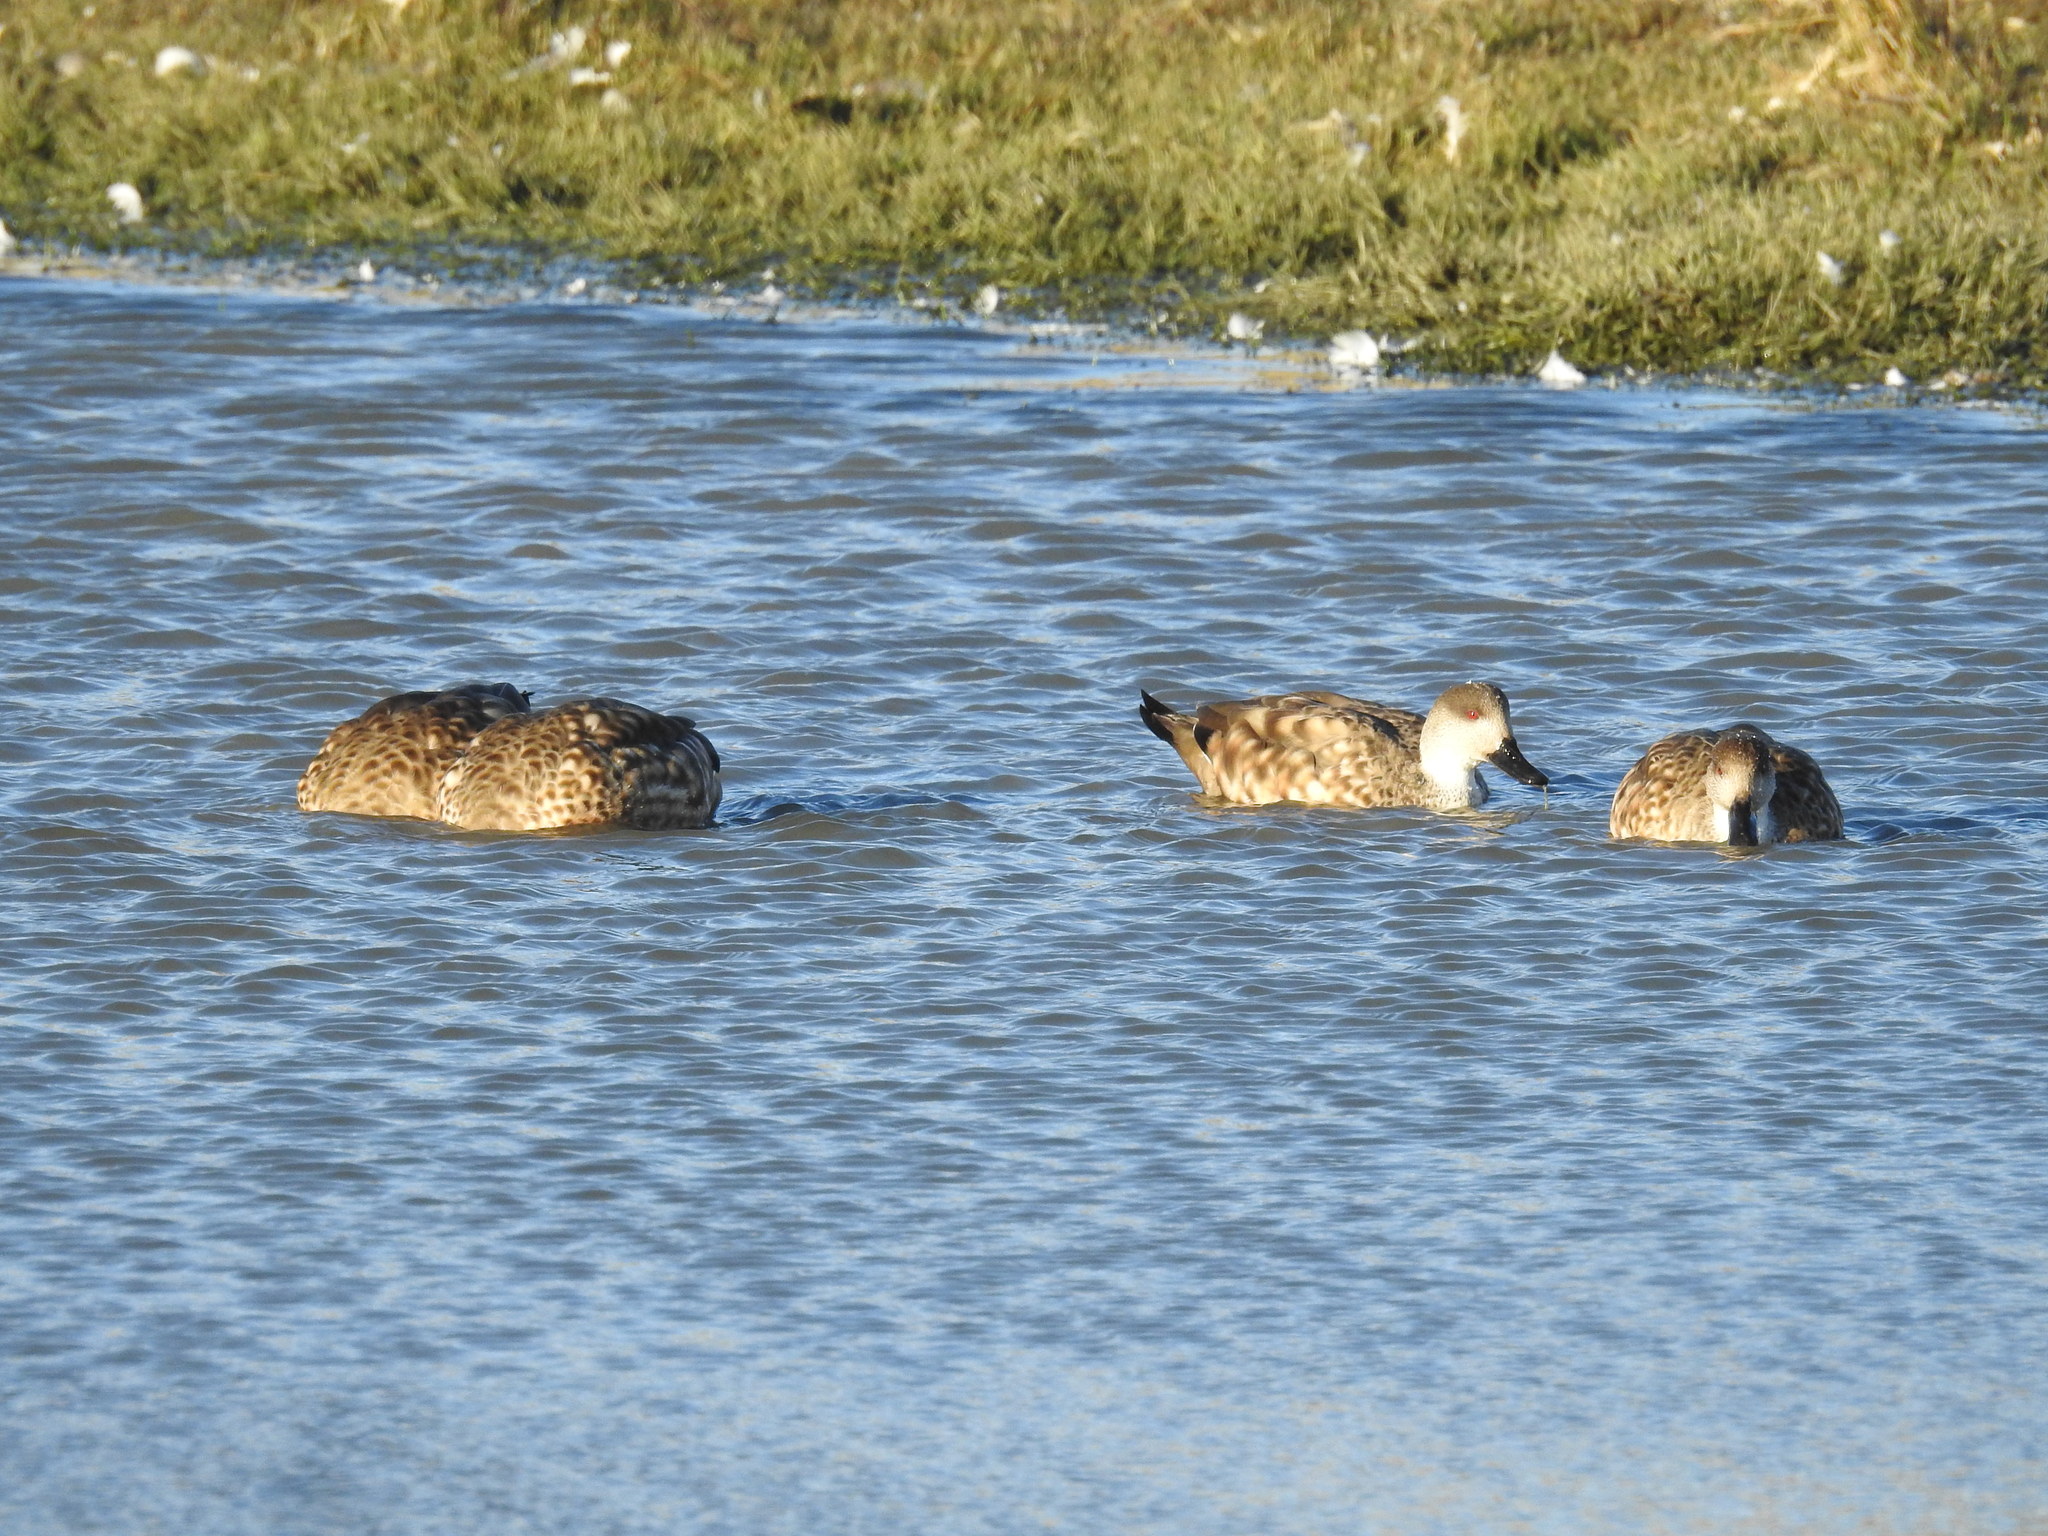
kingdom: Animalia
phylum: Chordata
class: Aves
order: Anseriformes
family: Anatidae
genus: Lophonetta
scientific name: Lophonetta specularioides
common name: Crested duck
